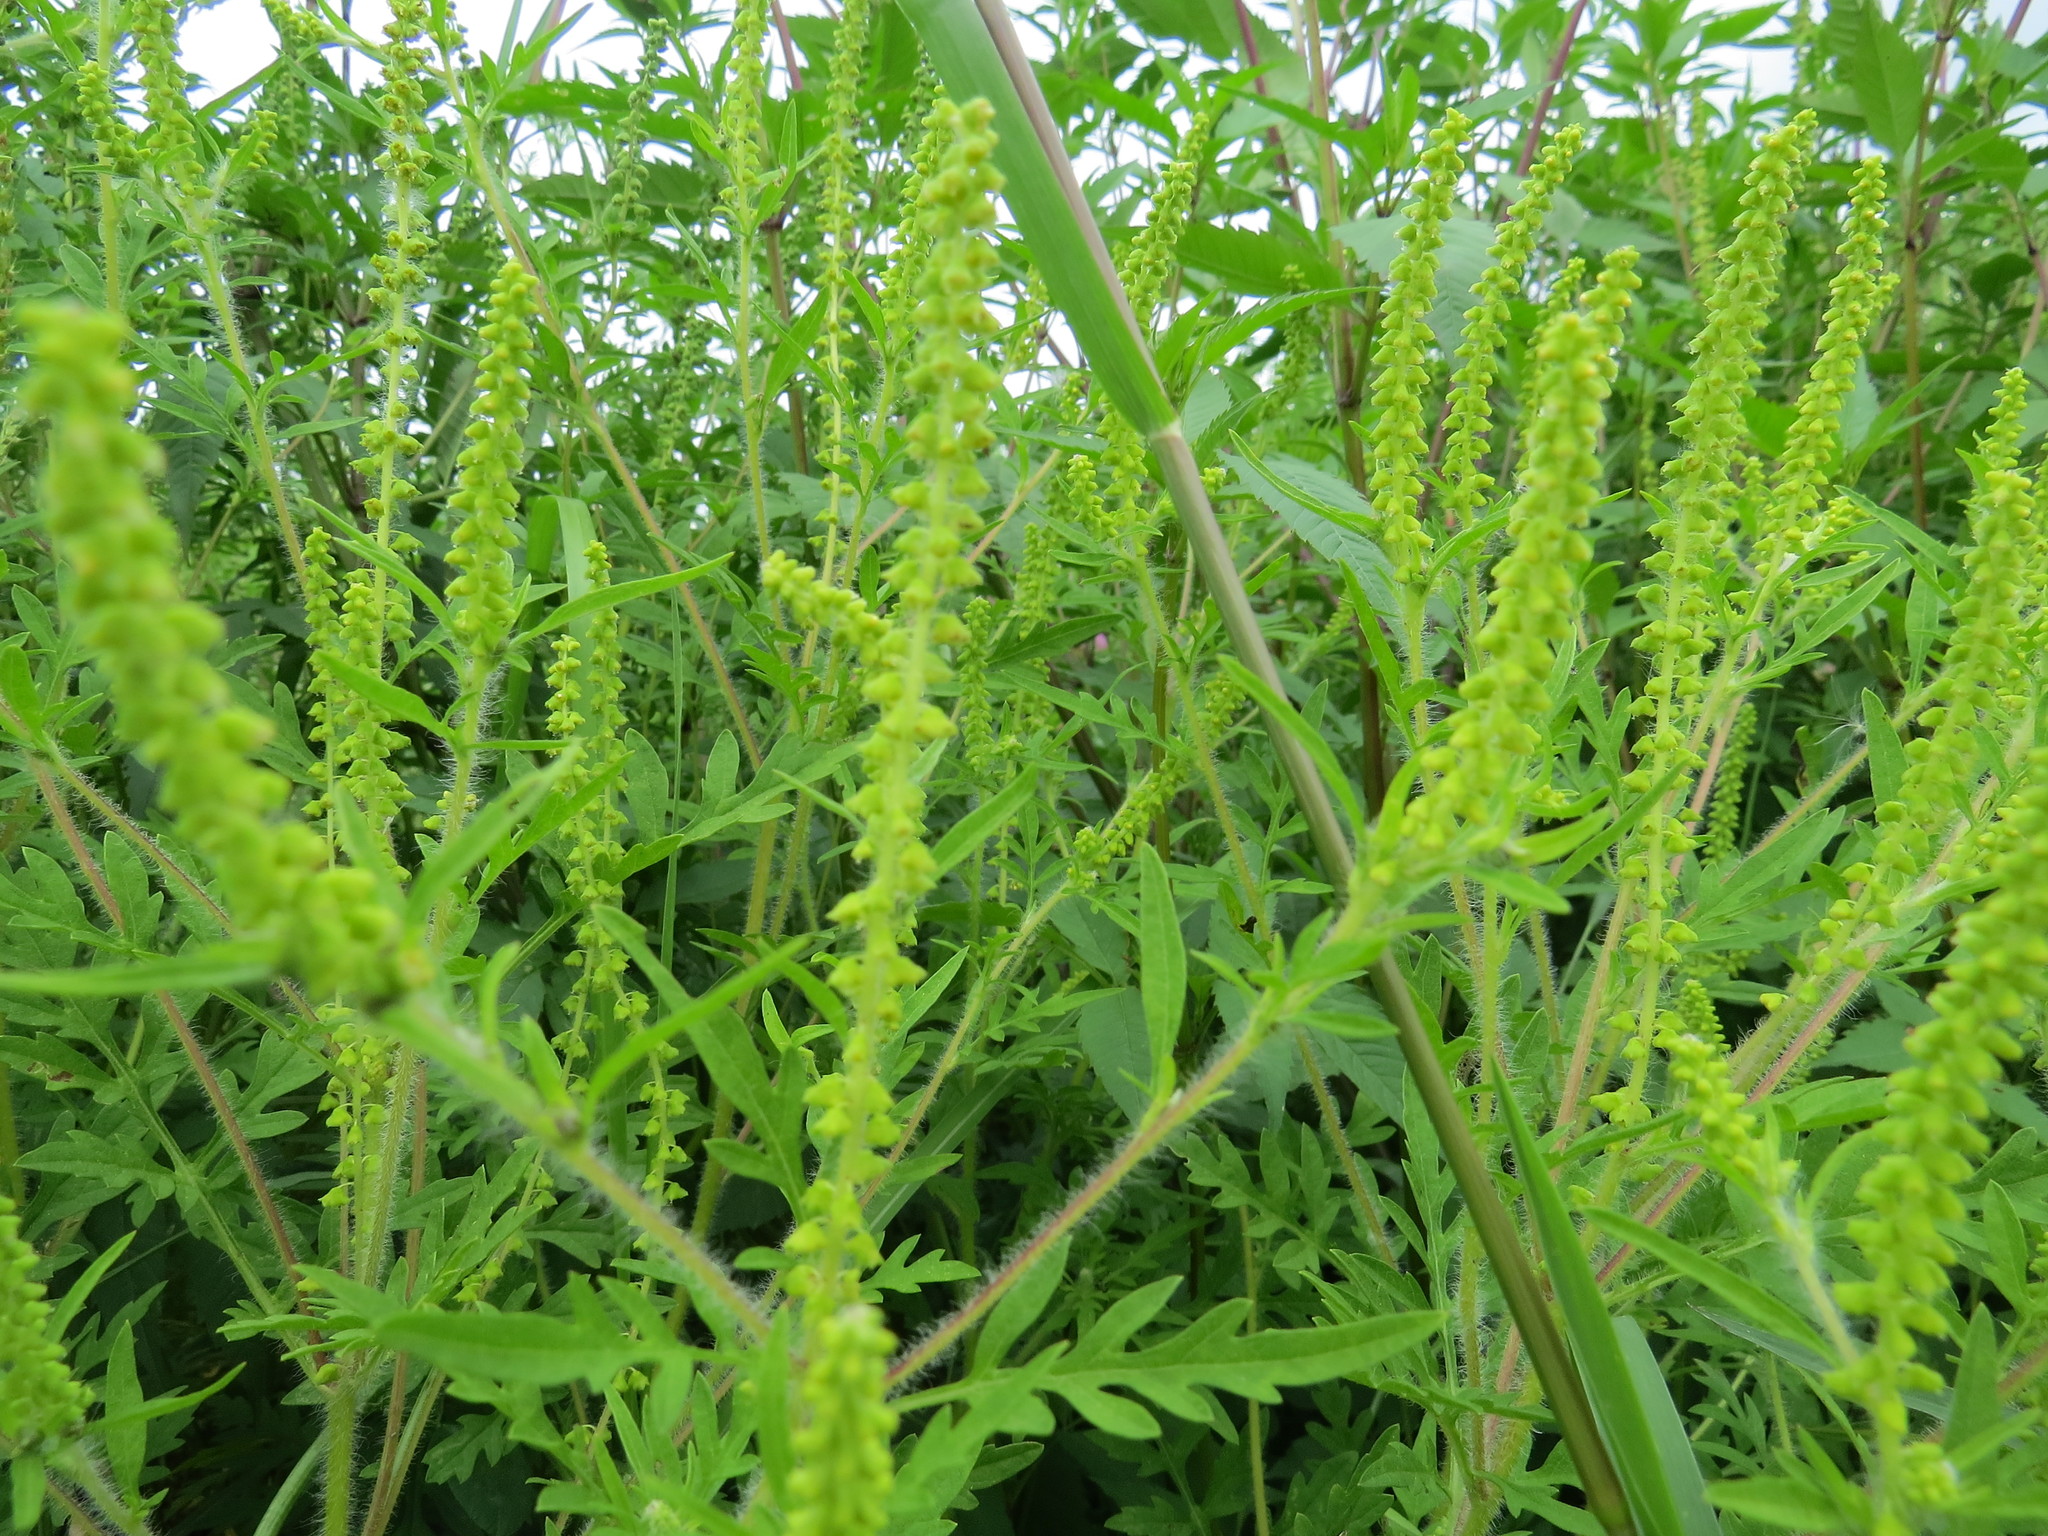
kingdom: Plantae
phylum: Tracheophyta
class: Magnoliopsida
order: Asterales
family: Asteraceae
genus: Ambrosia
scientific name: Ambrosia artemisiifolia
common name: Annual ragweed
